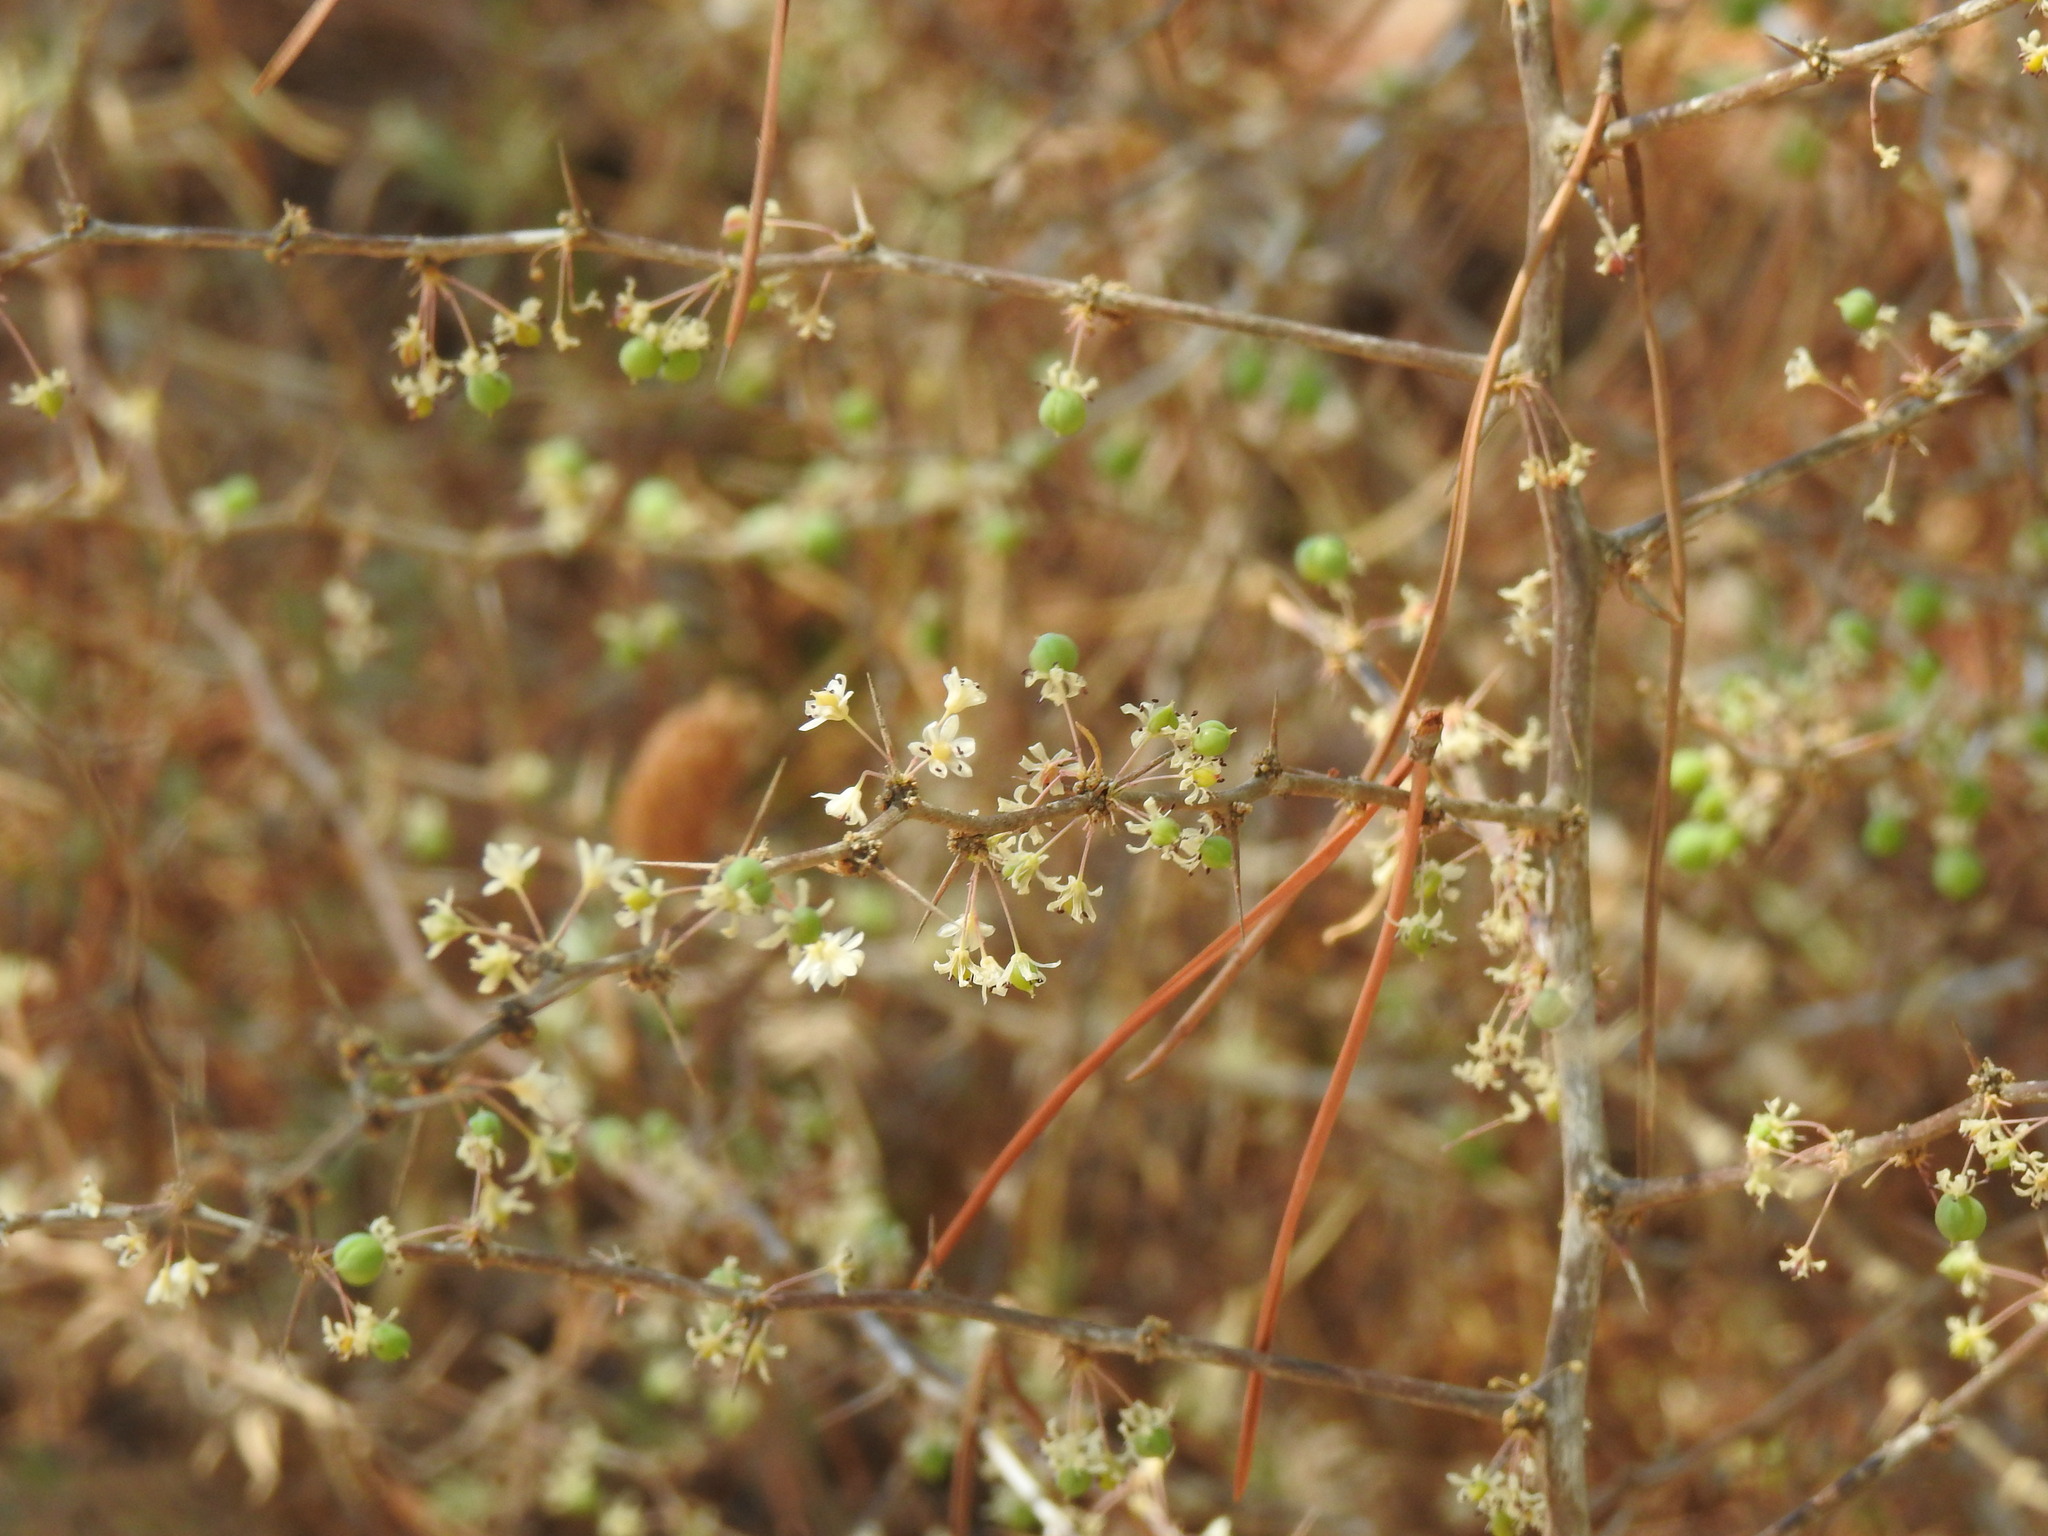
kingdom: Plantae
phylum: Tracheophyta
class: Liliopsida
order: Asparagales
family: Asparagaceae
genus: Asparagus
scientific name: Asparagus albus
